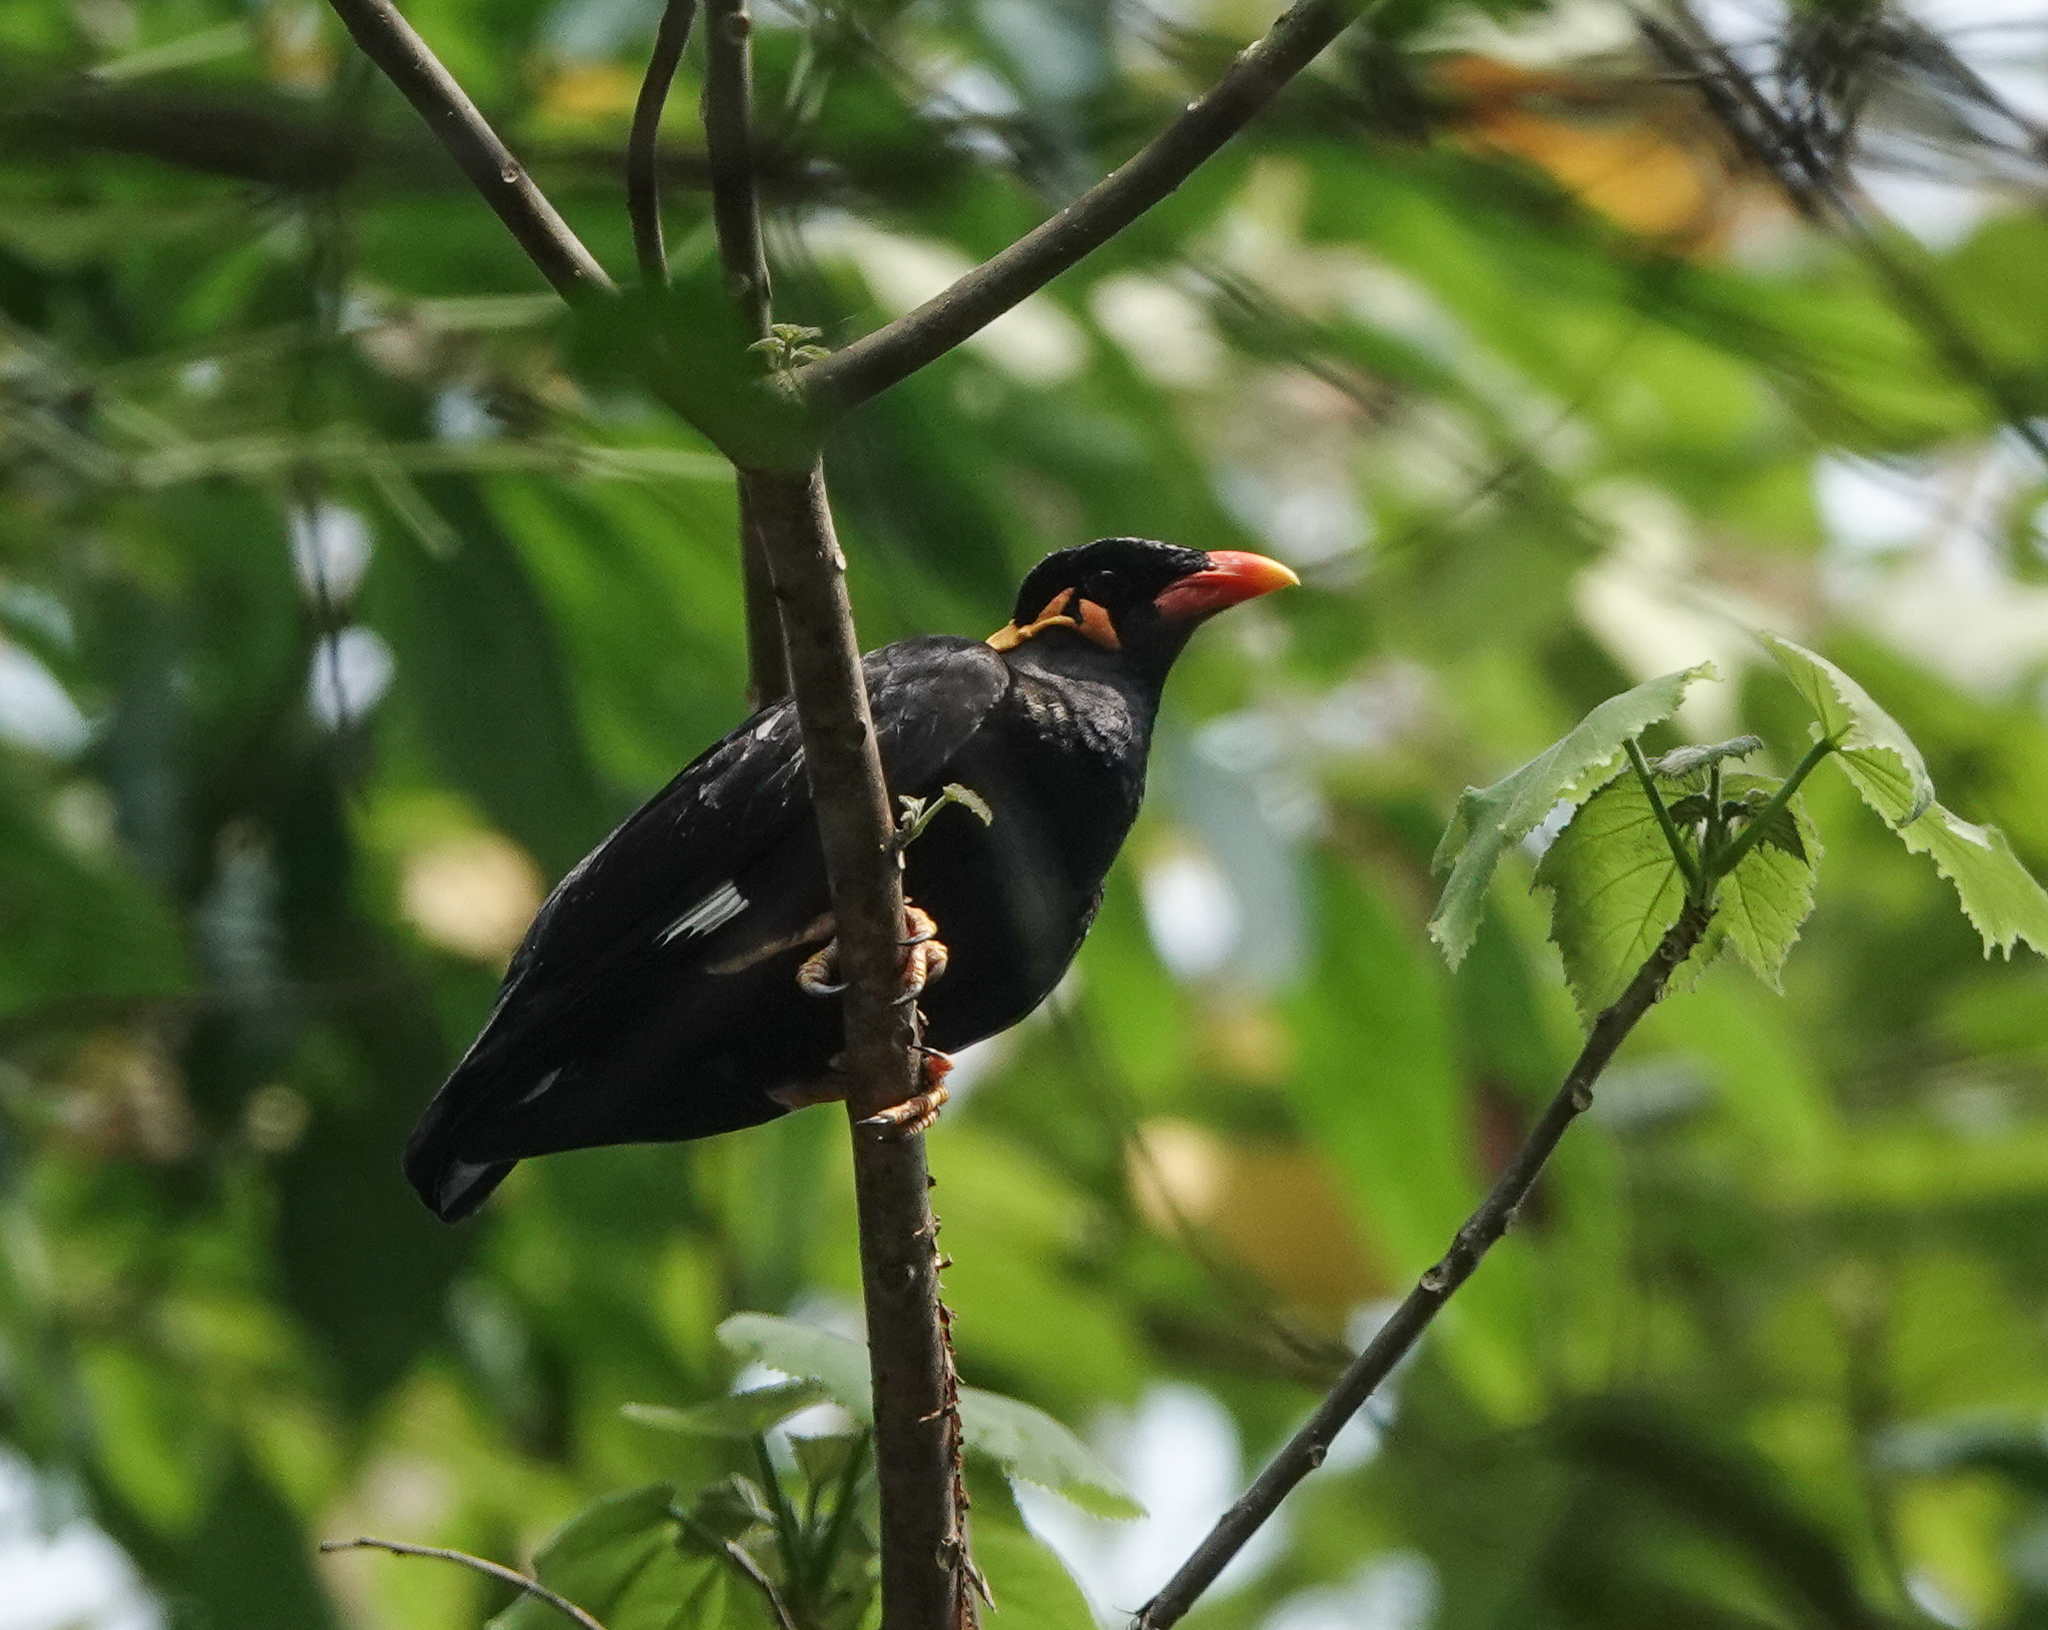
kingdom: Animalia
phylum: Chordata
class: Aves
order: Passeriformes
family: Sturnidae
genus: Gracula
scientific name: Gracula religiosa
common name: Common hill myna
